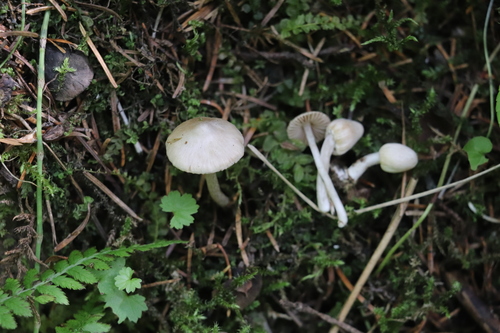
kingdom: Fungi
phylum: Basidiomycota
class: Agaricomycetes
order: Agaricales
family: Inocybaceae
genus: Inocybe
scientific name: Inocybe geophylla
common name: White fibrecap
